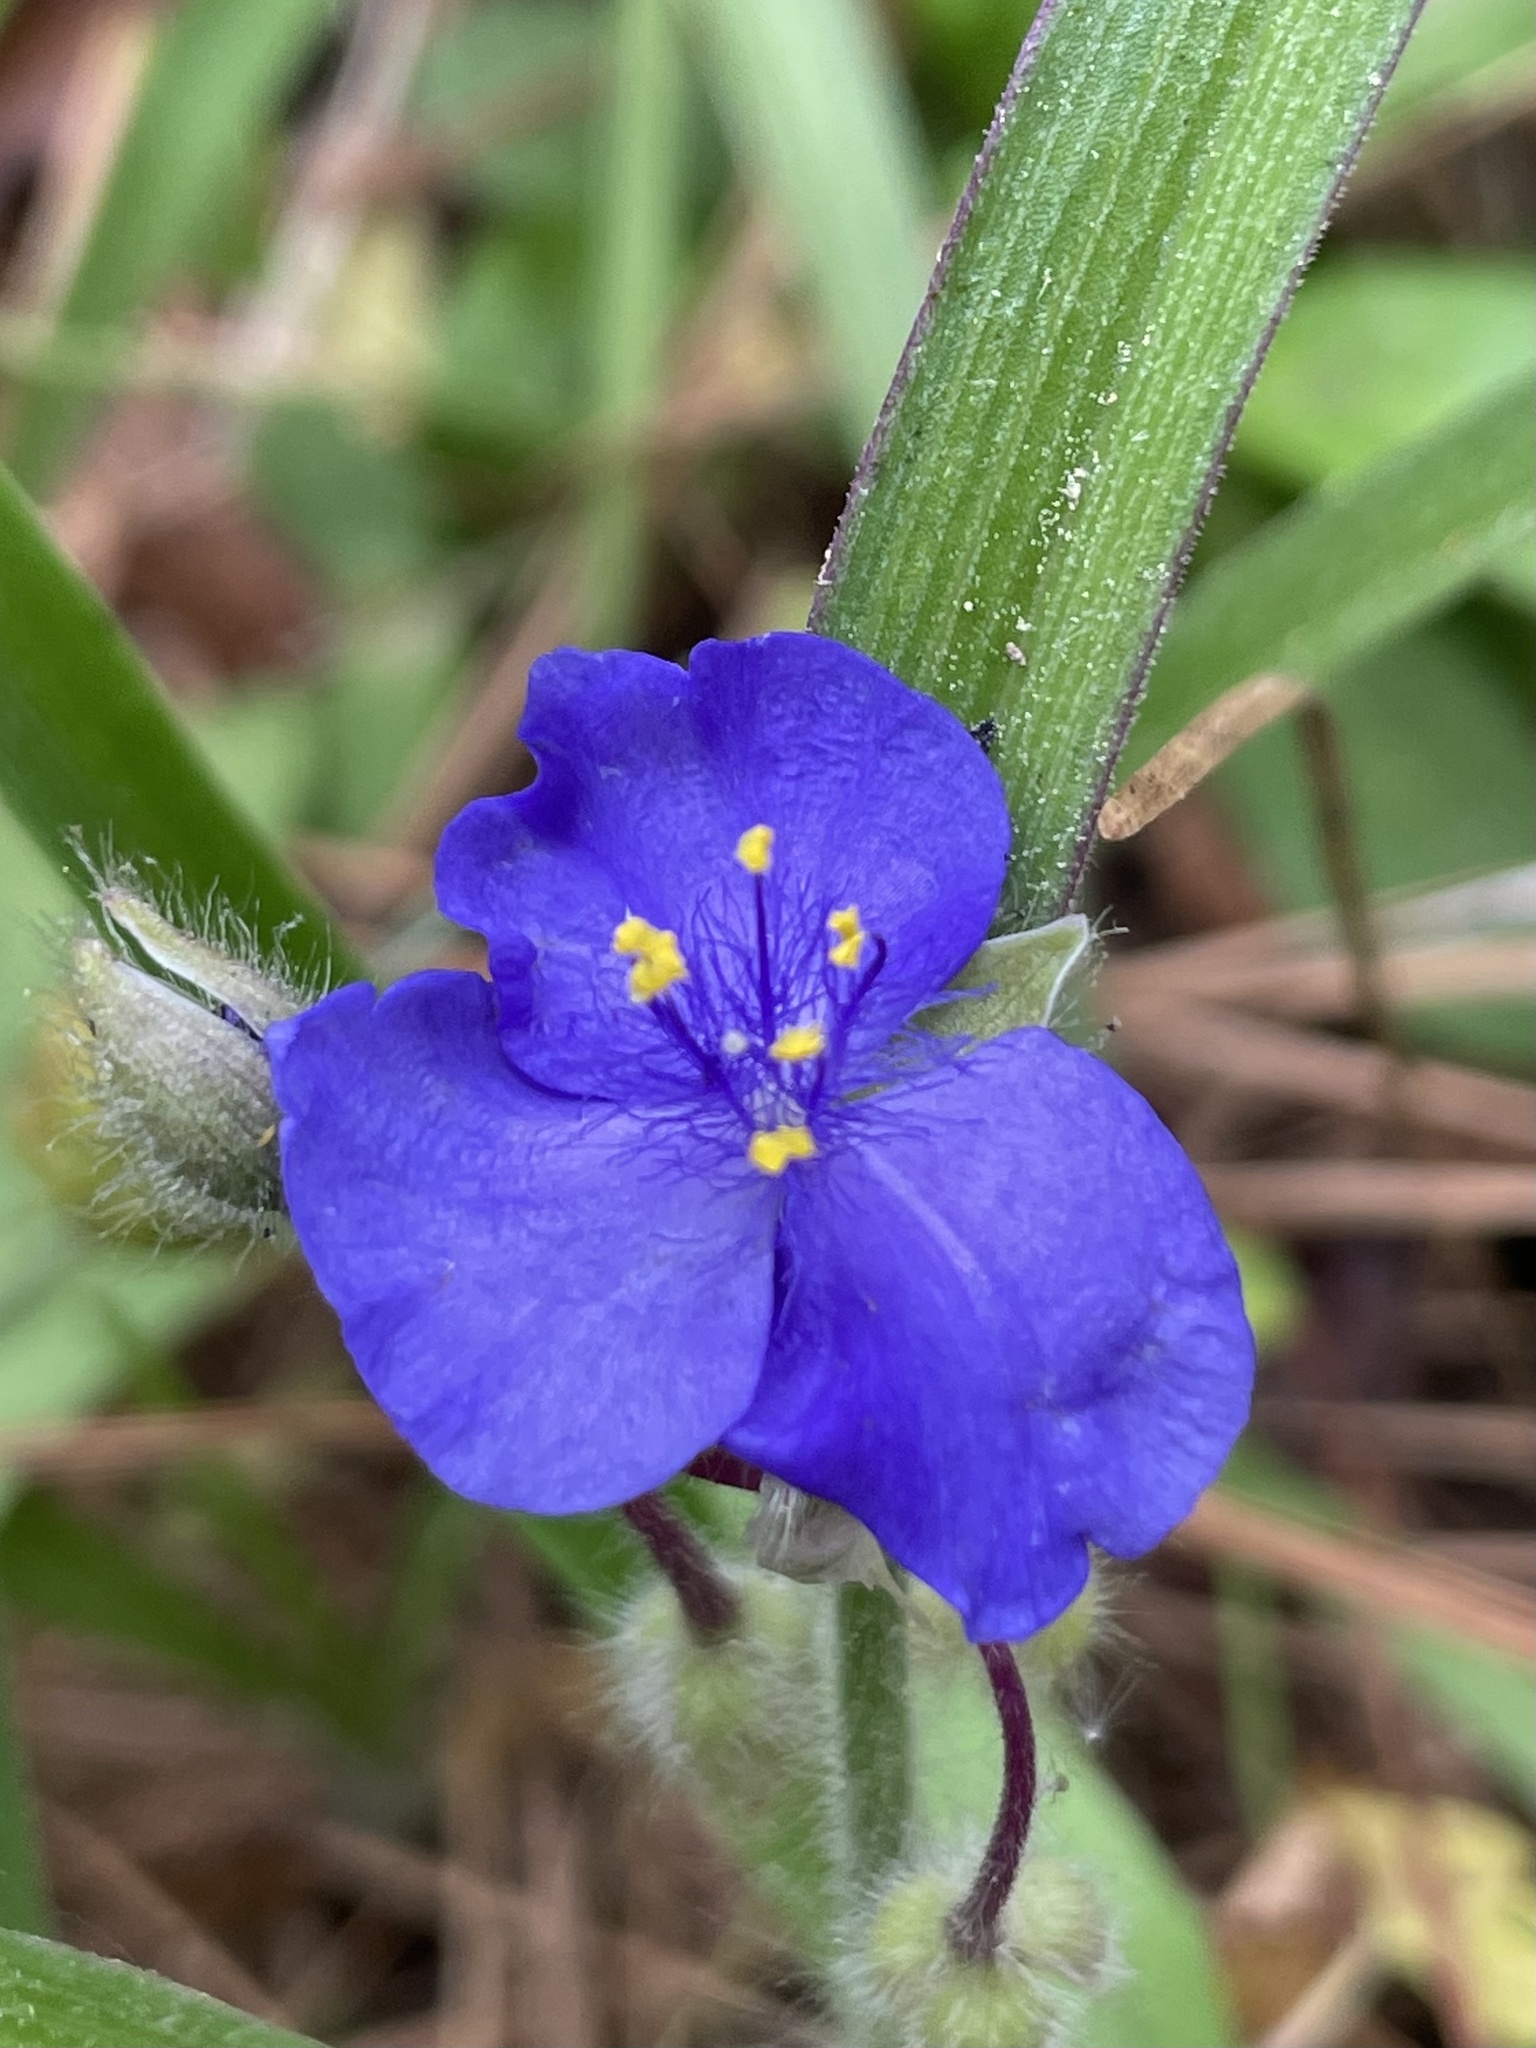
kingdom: Plantae
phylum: Tracheophyta
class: Liliopsida
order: Commelinales
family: Commelinaceae
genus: Tradescantia
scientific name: Tradescantia hirsutiflora
